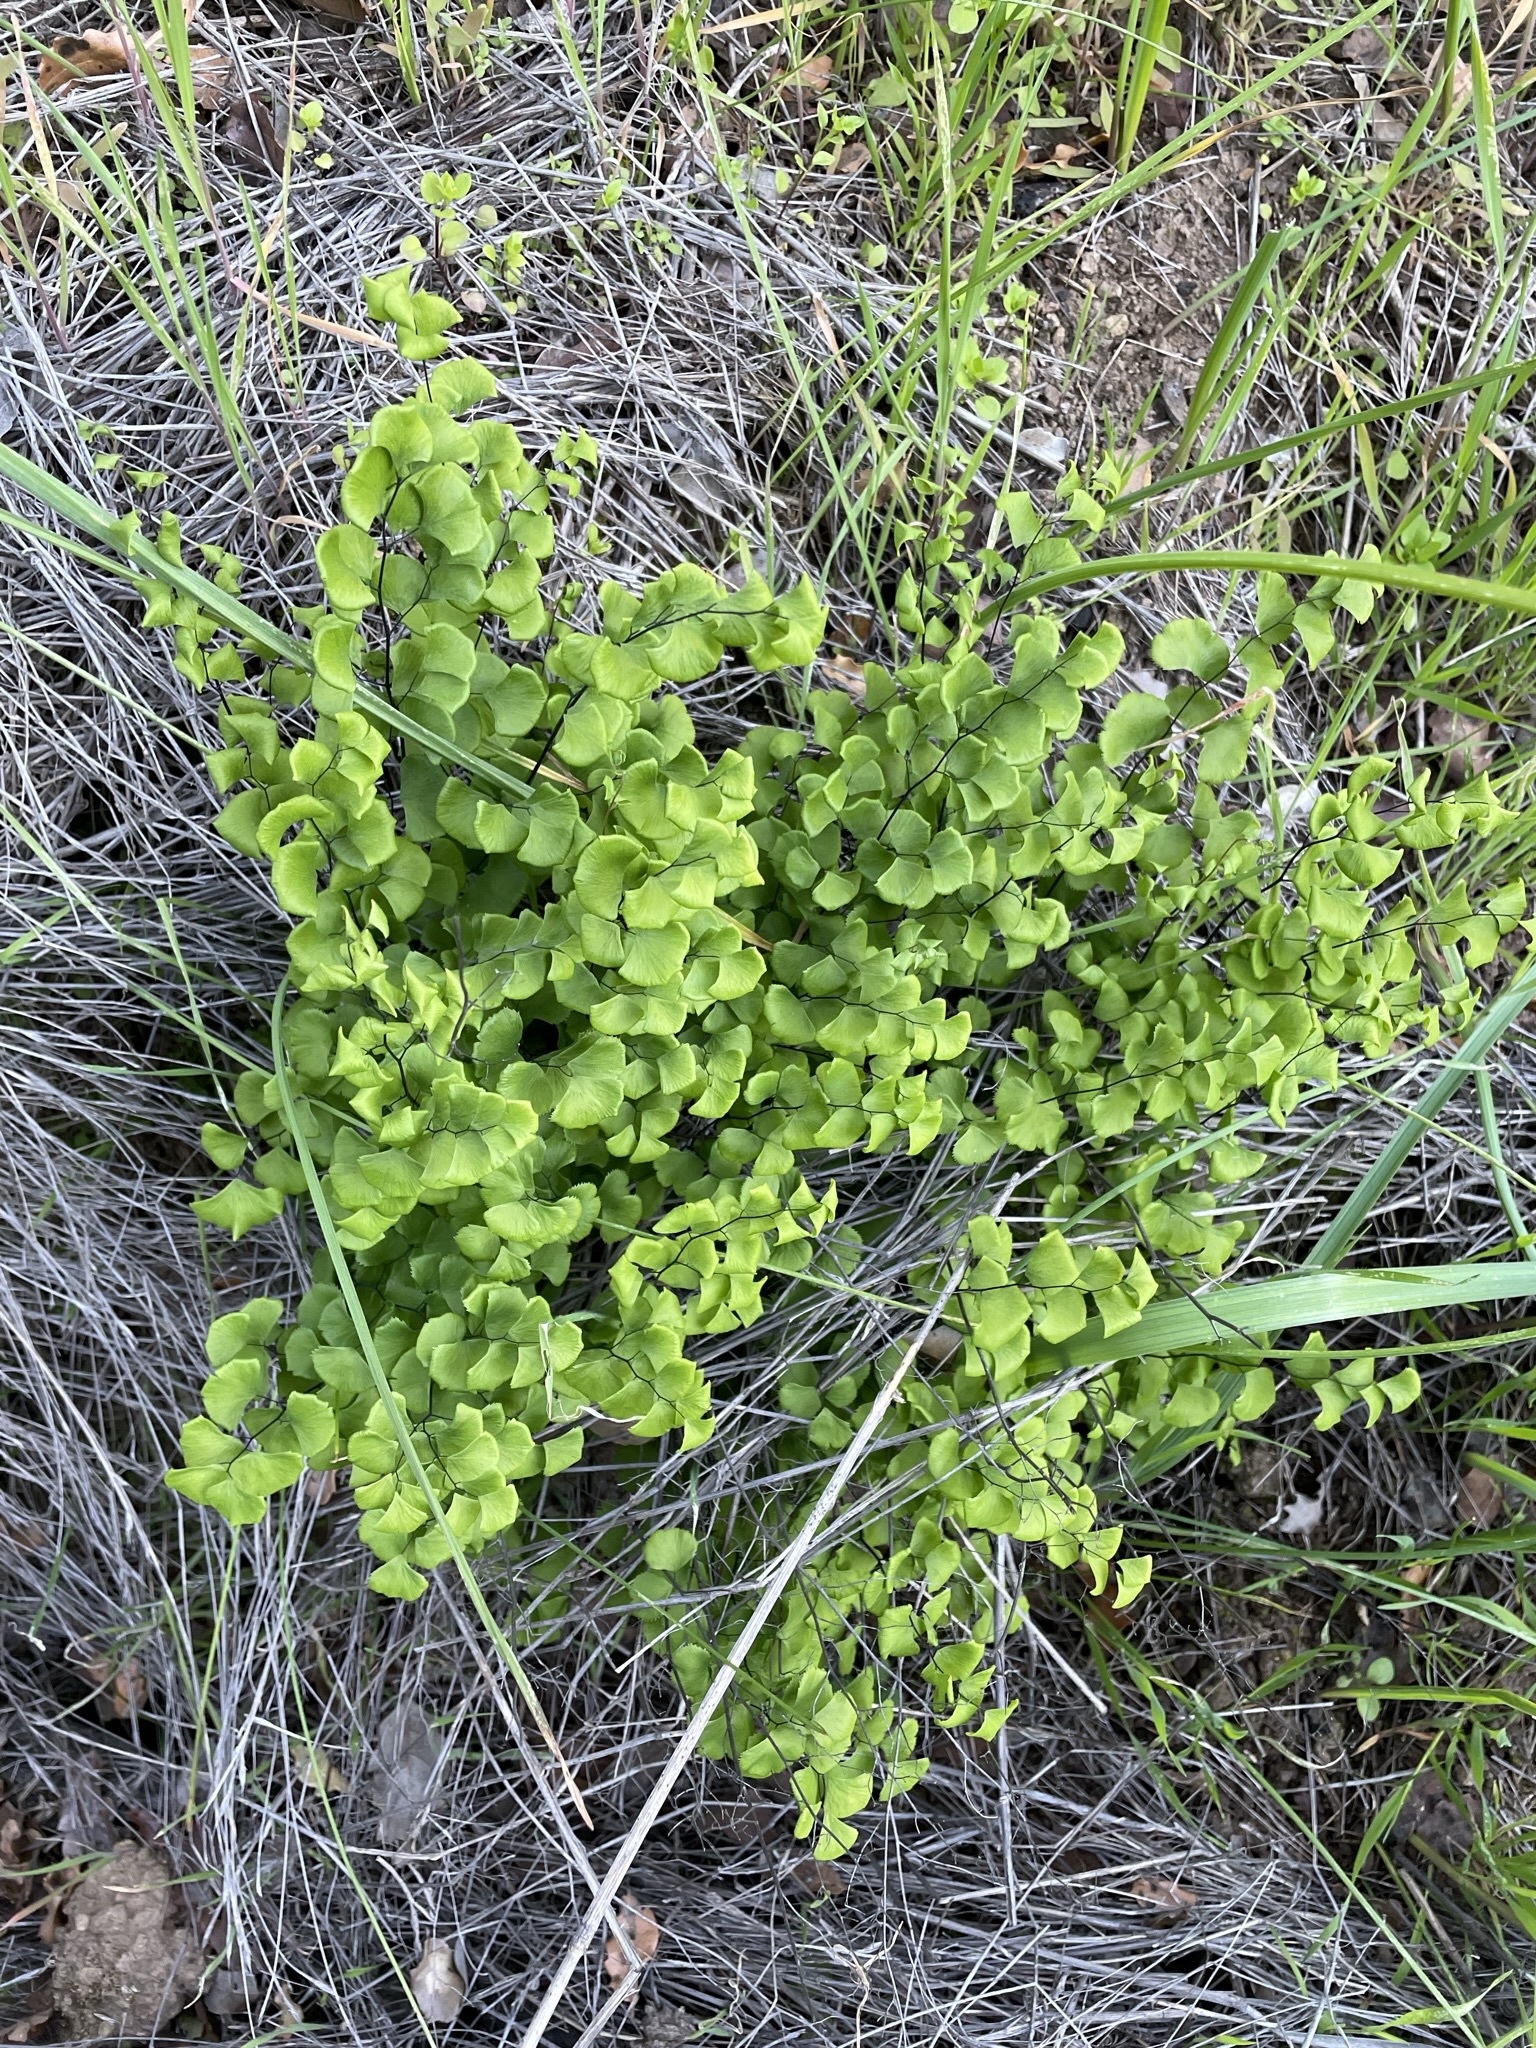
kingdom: Plantae
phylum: Tracheophyta
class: Polypodiopsida
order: Polypodiales
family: Pteridaceae
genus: Adiantum
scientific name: Adiantum jordanii
